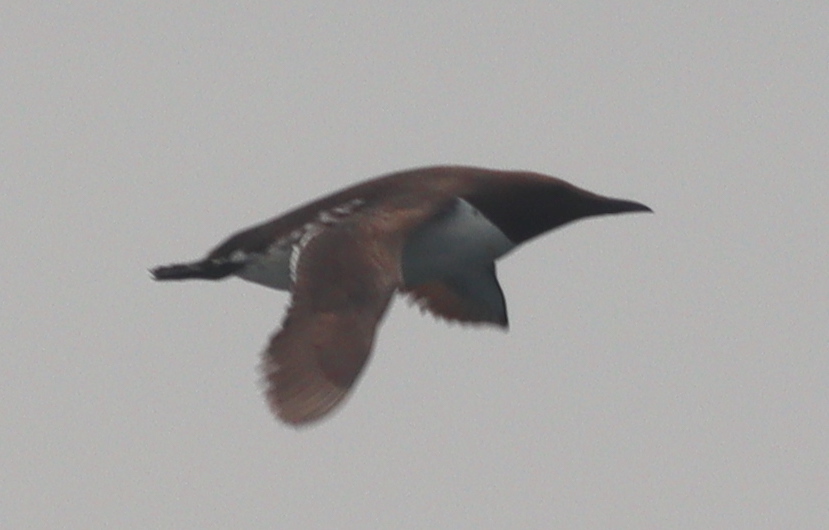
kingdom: Animalia
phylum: Chordata
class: Aves
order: Charadriiformes
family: Alcidae
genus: Uria
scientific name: Uria aalge
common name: Common murre
